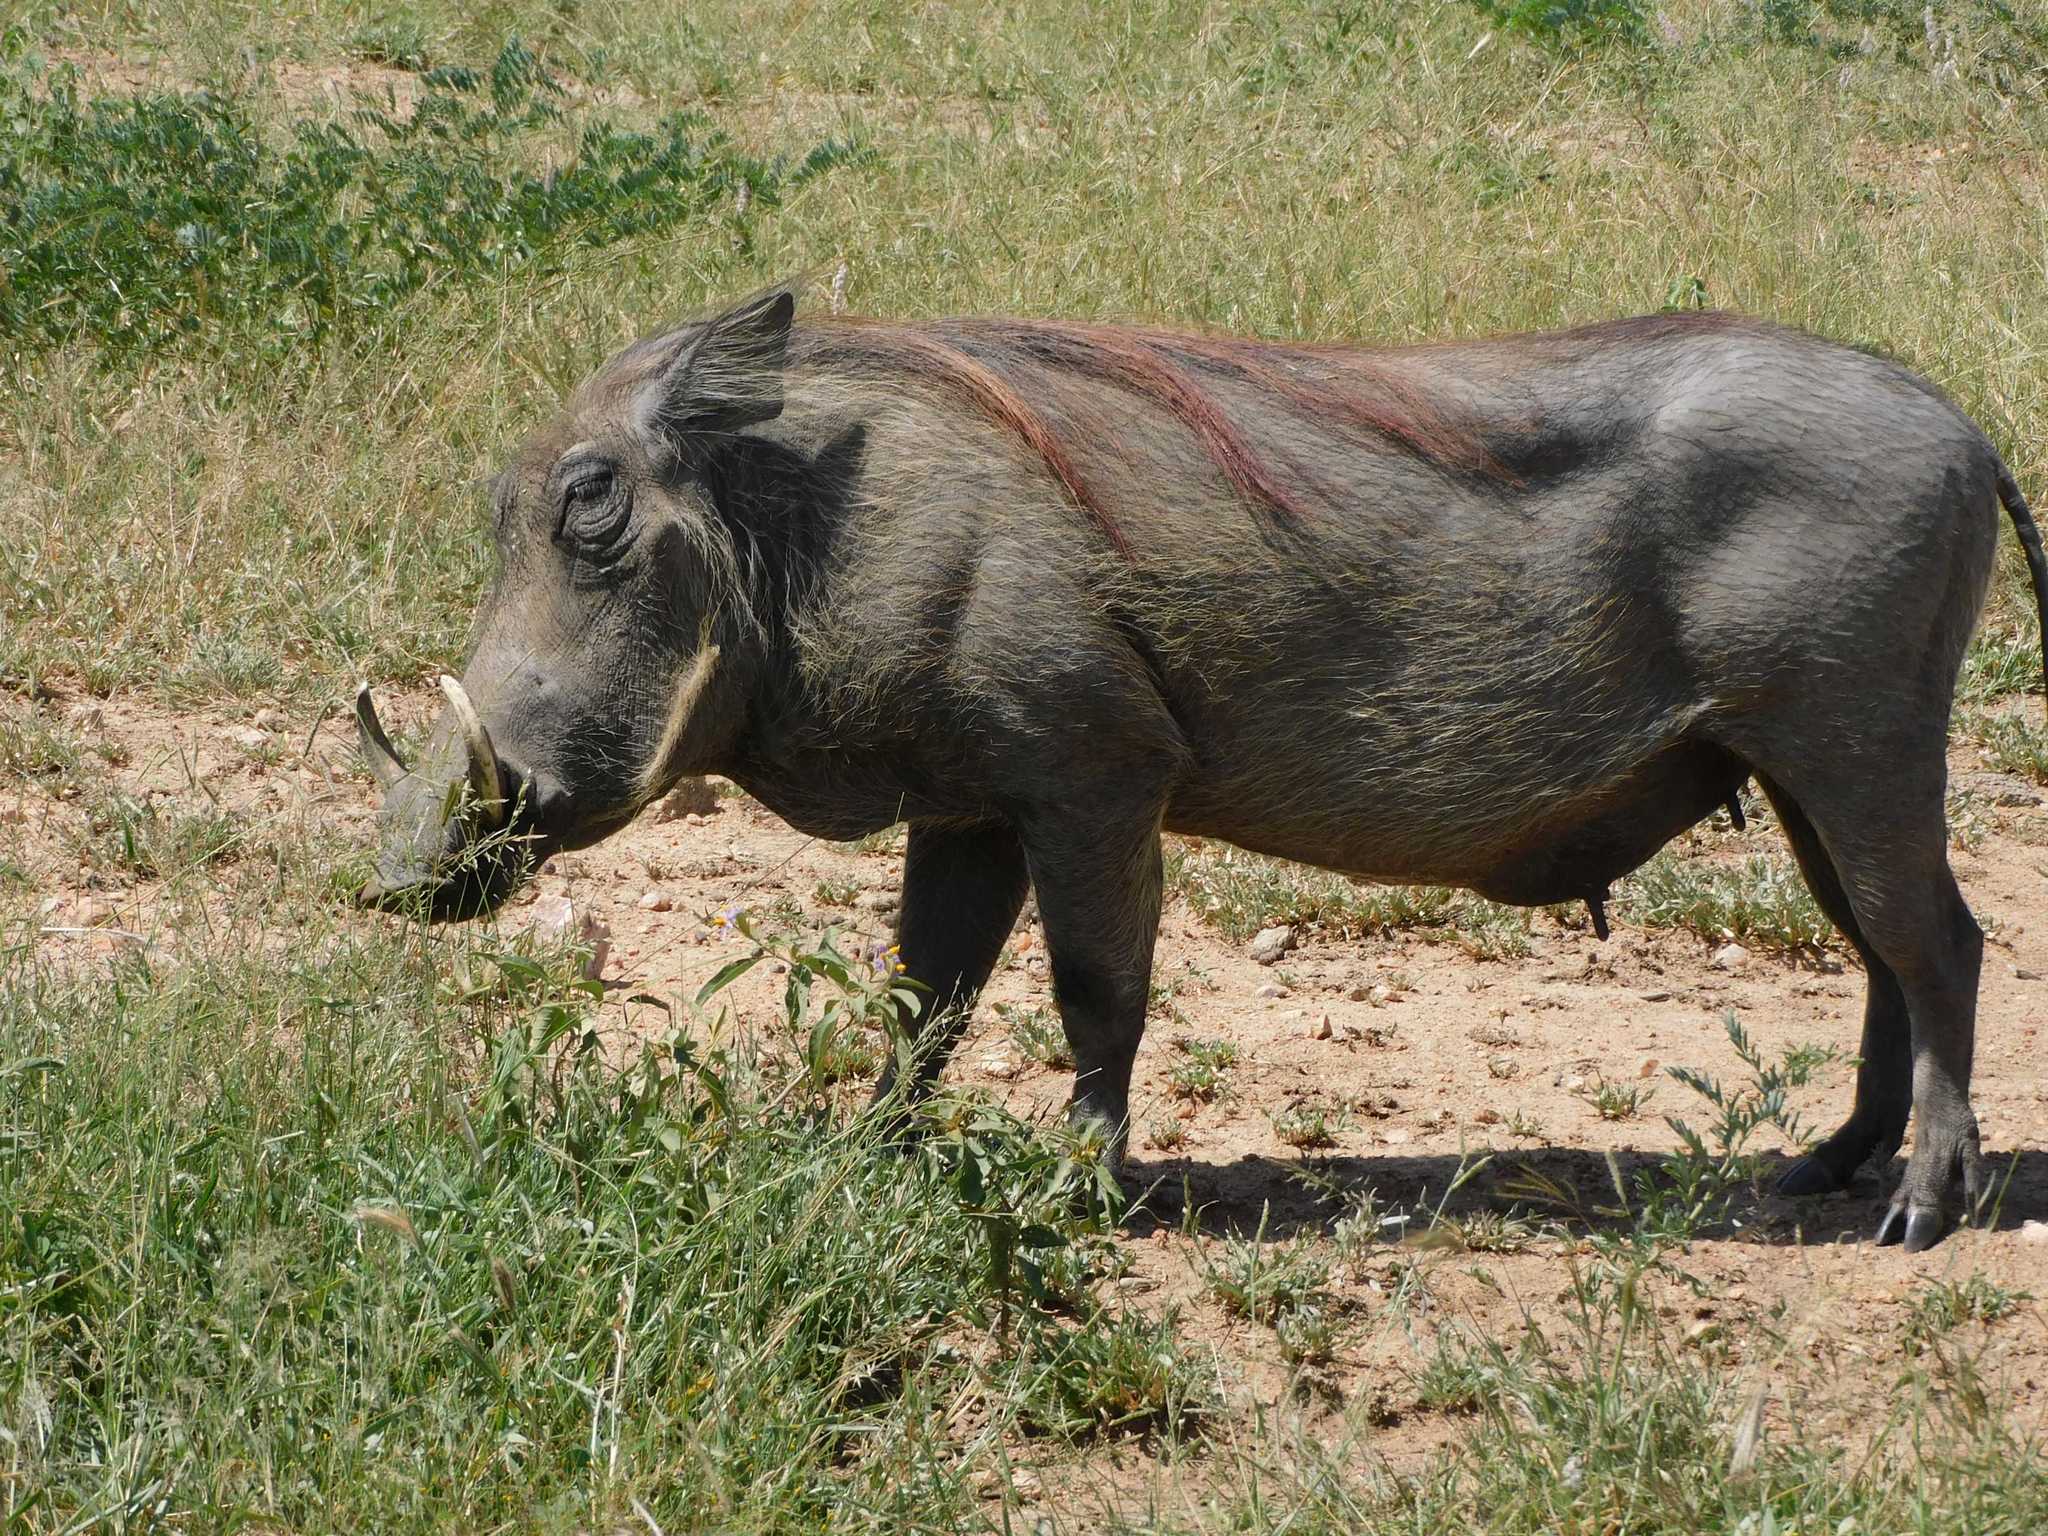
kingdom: Animalia
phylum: Chordata
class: Mammalia
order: Artiodactyla
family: Suidae
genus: Phacochoerus
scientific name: Phacochoerus africanus
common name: Common warthog
